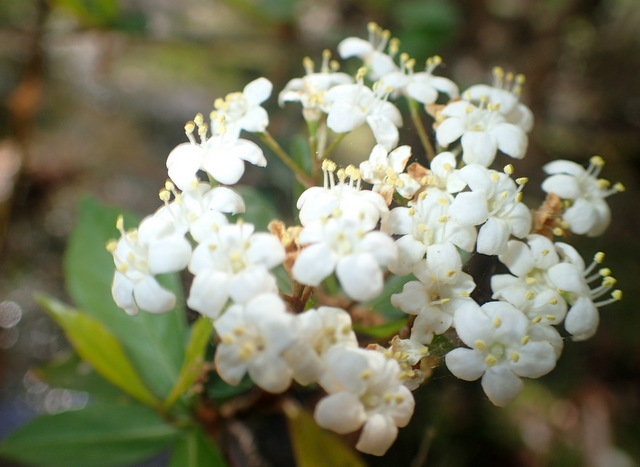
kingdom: Plantae
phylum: Tracheophyta
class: Magnoliopsida
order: Dipsacales
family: Viburnaceae
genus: Viburnum
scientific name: Viburnum obovatum
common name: Walter's viburnum
